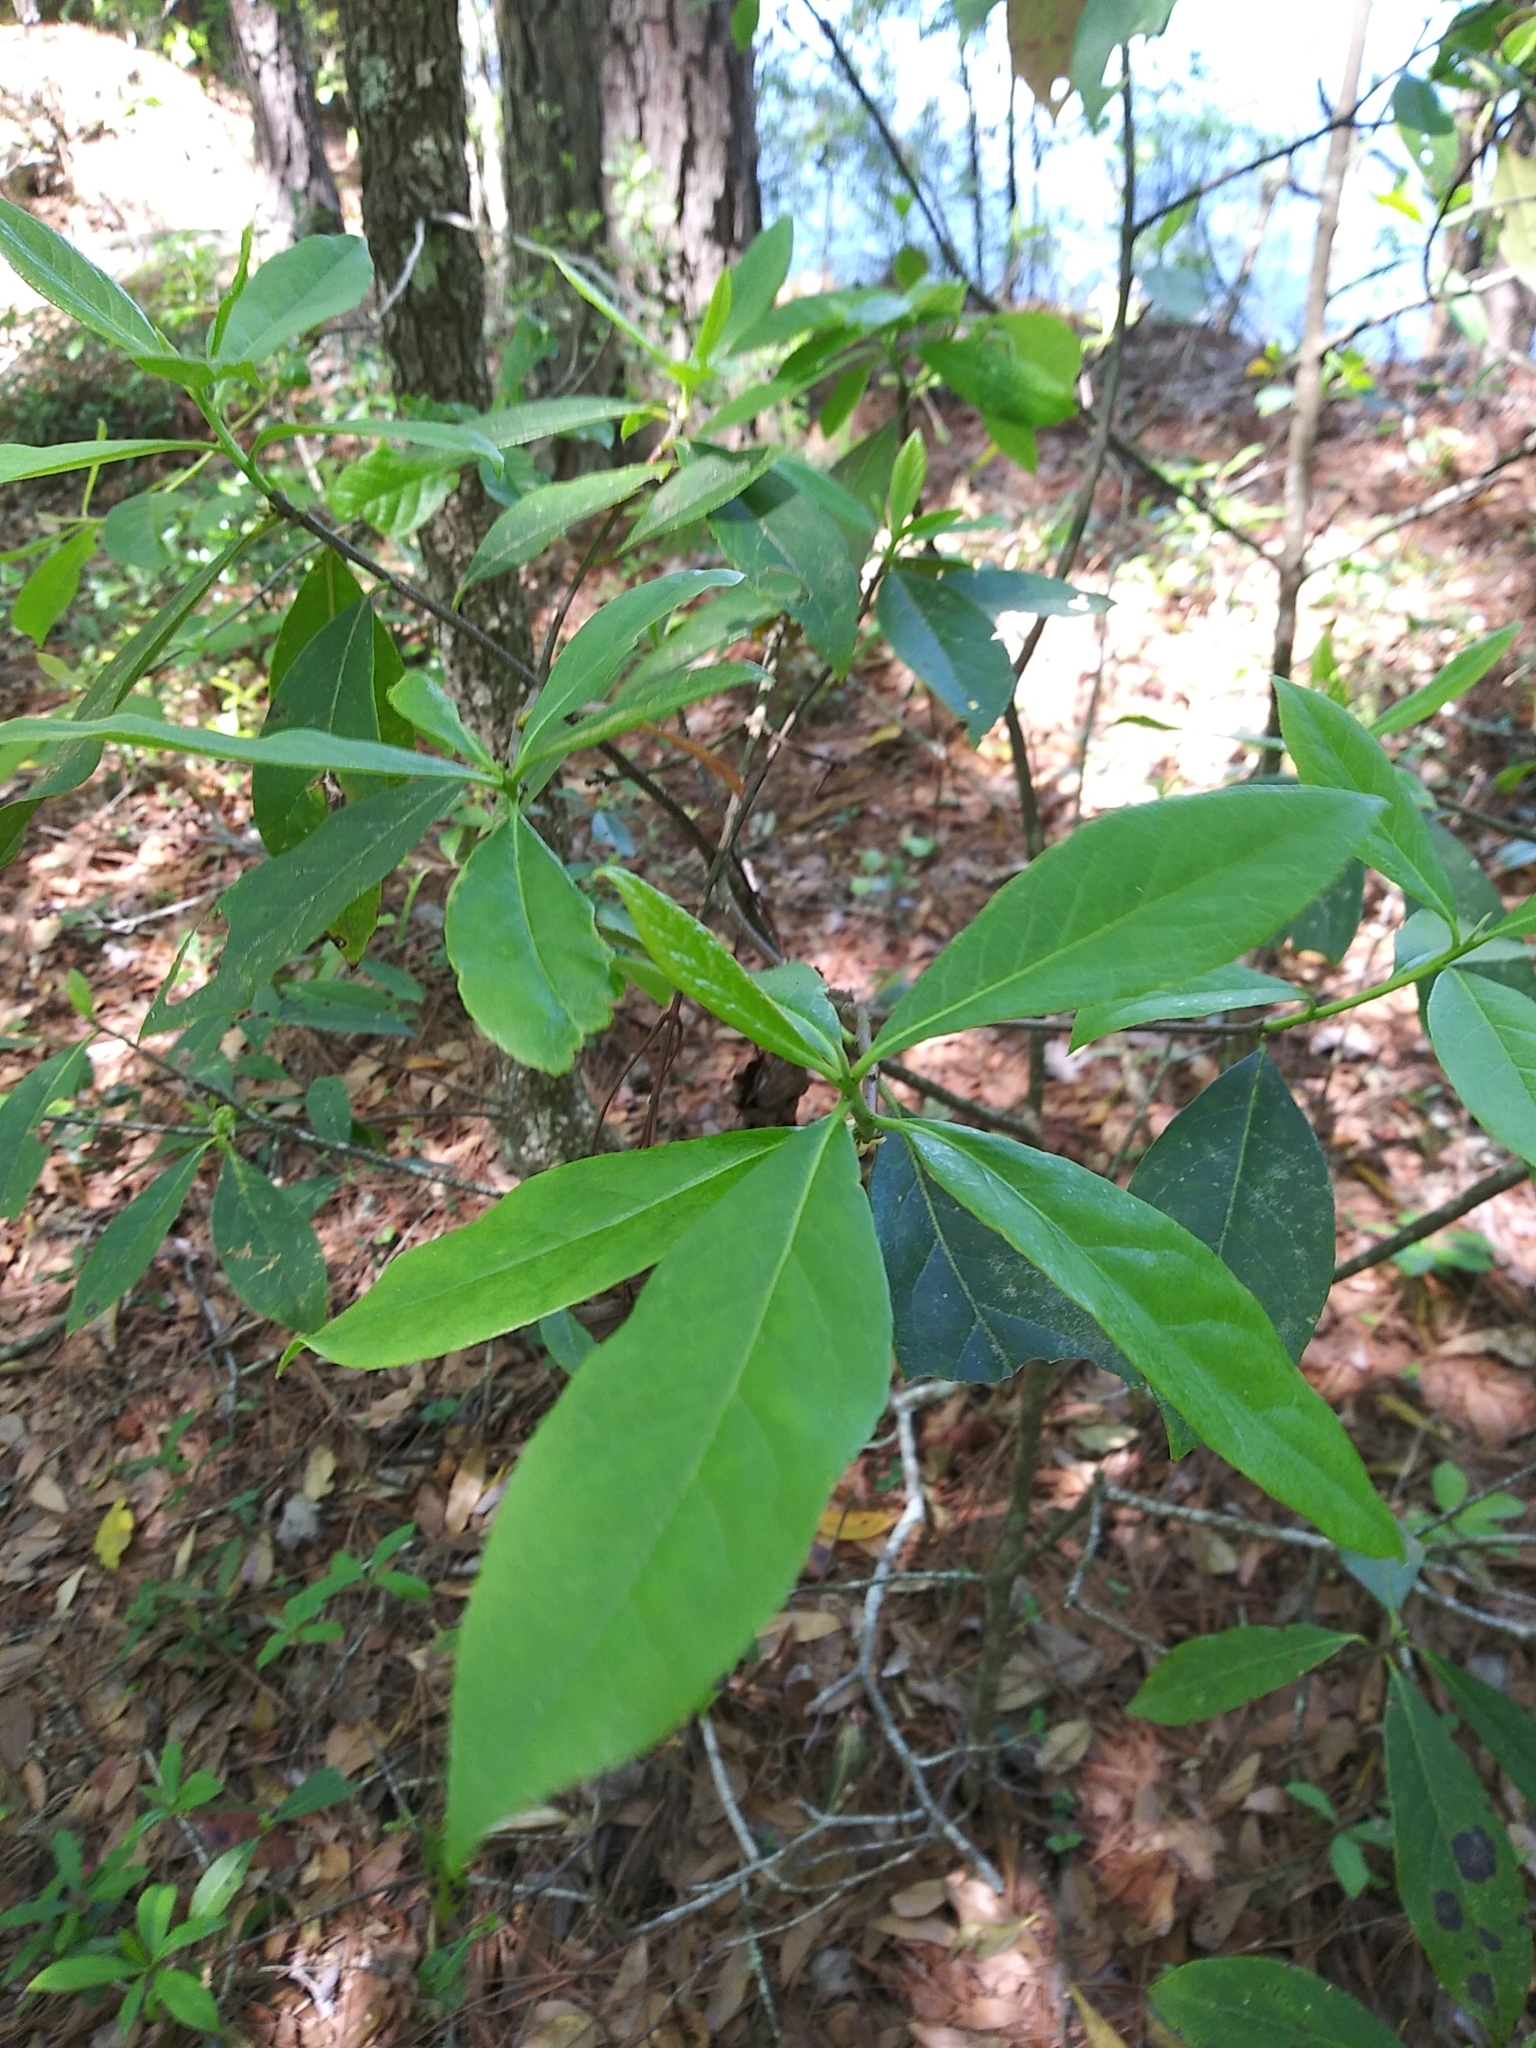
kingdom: Plantae
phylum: Tracheophyta
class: Magnoliopsida
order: Ericales
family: Symplocaceae
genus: Symplocos
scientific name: Symplocos tinctoria
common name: Horse-sugar
